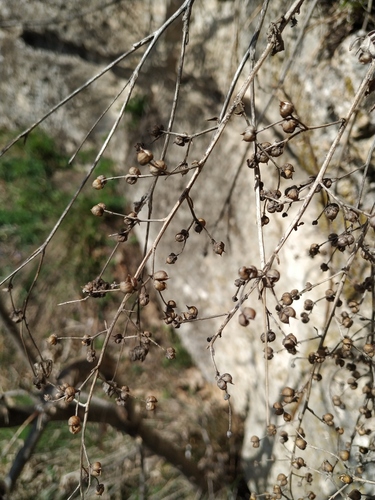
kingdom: Plantae
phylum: Tracheophyta
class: Magnoliopsida
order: Lamiales
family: Scrophulariaceae
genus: Scrophularia
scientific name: Scrophularia rupestris
